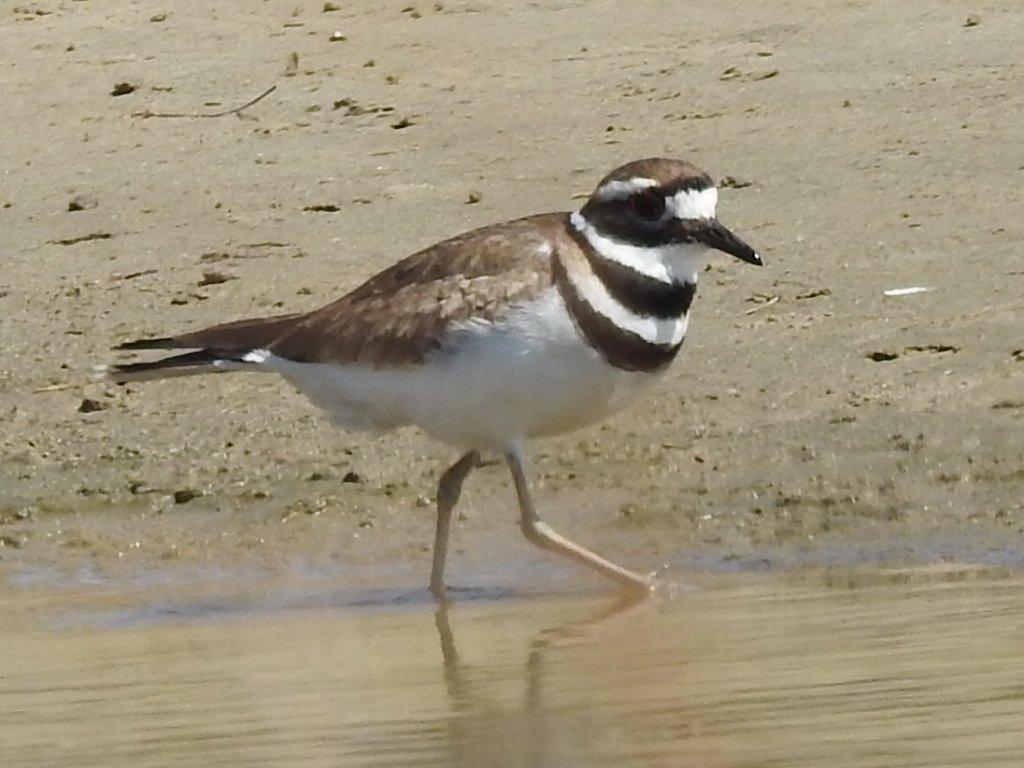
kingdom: Animalia
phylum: Chordata
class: Aves
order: Charadriiformes
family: Charadriidae
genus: Charadrius
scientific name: Charadrius vociferus
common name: Killdeer
